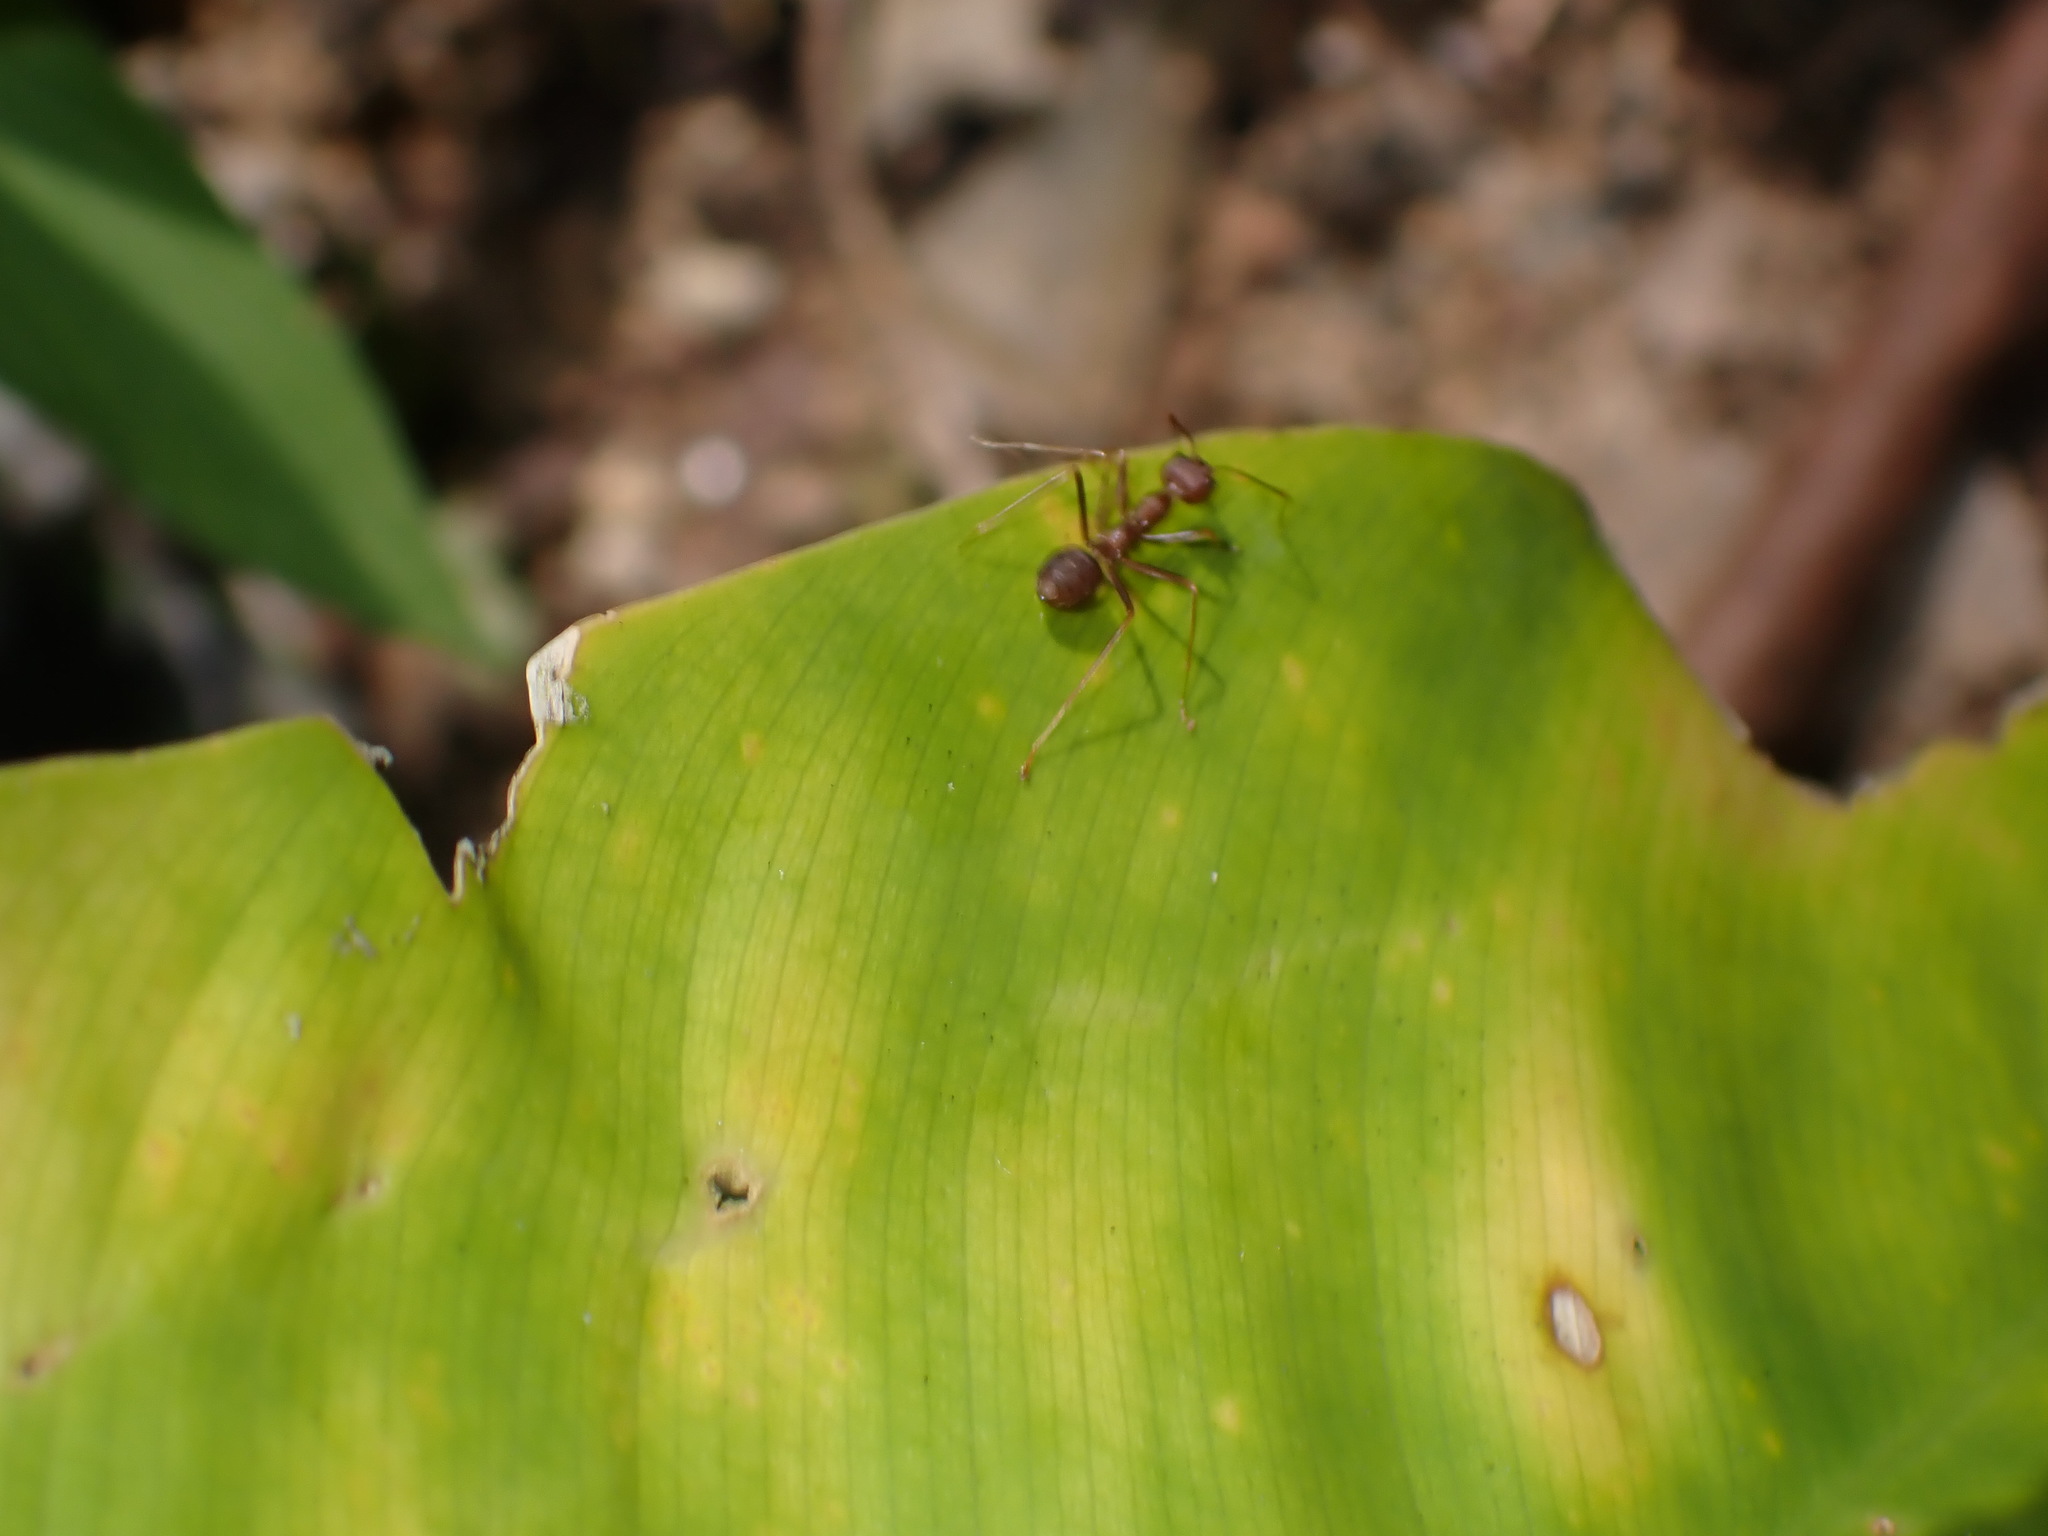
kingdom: Animalia
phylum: Arthropoda
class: Insecta
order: Hymenoptera
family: Formicidae
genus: Oecophylla
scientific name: Oecophylla smaragdina
